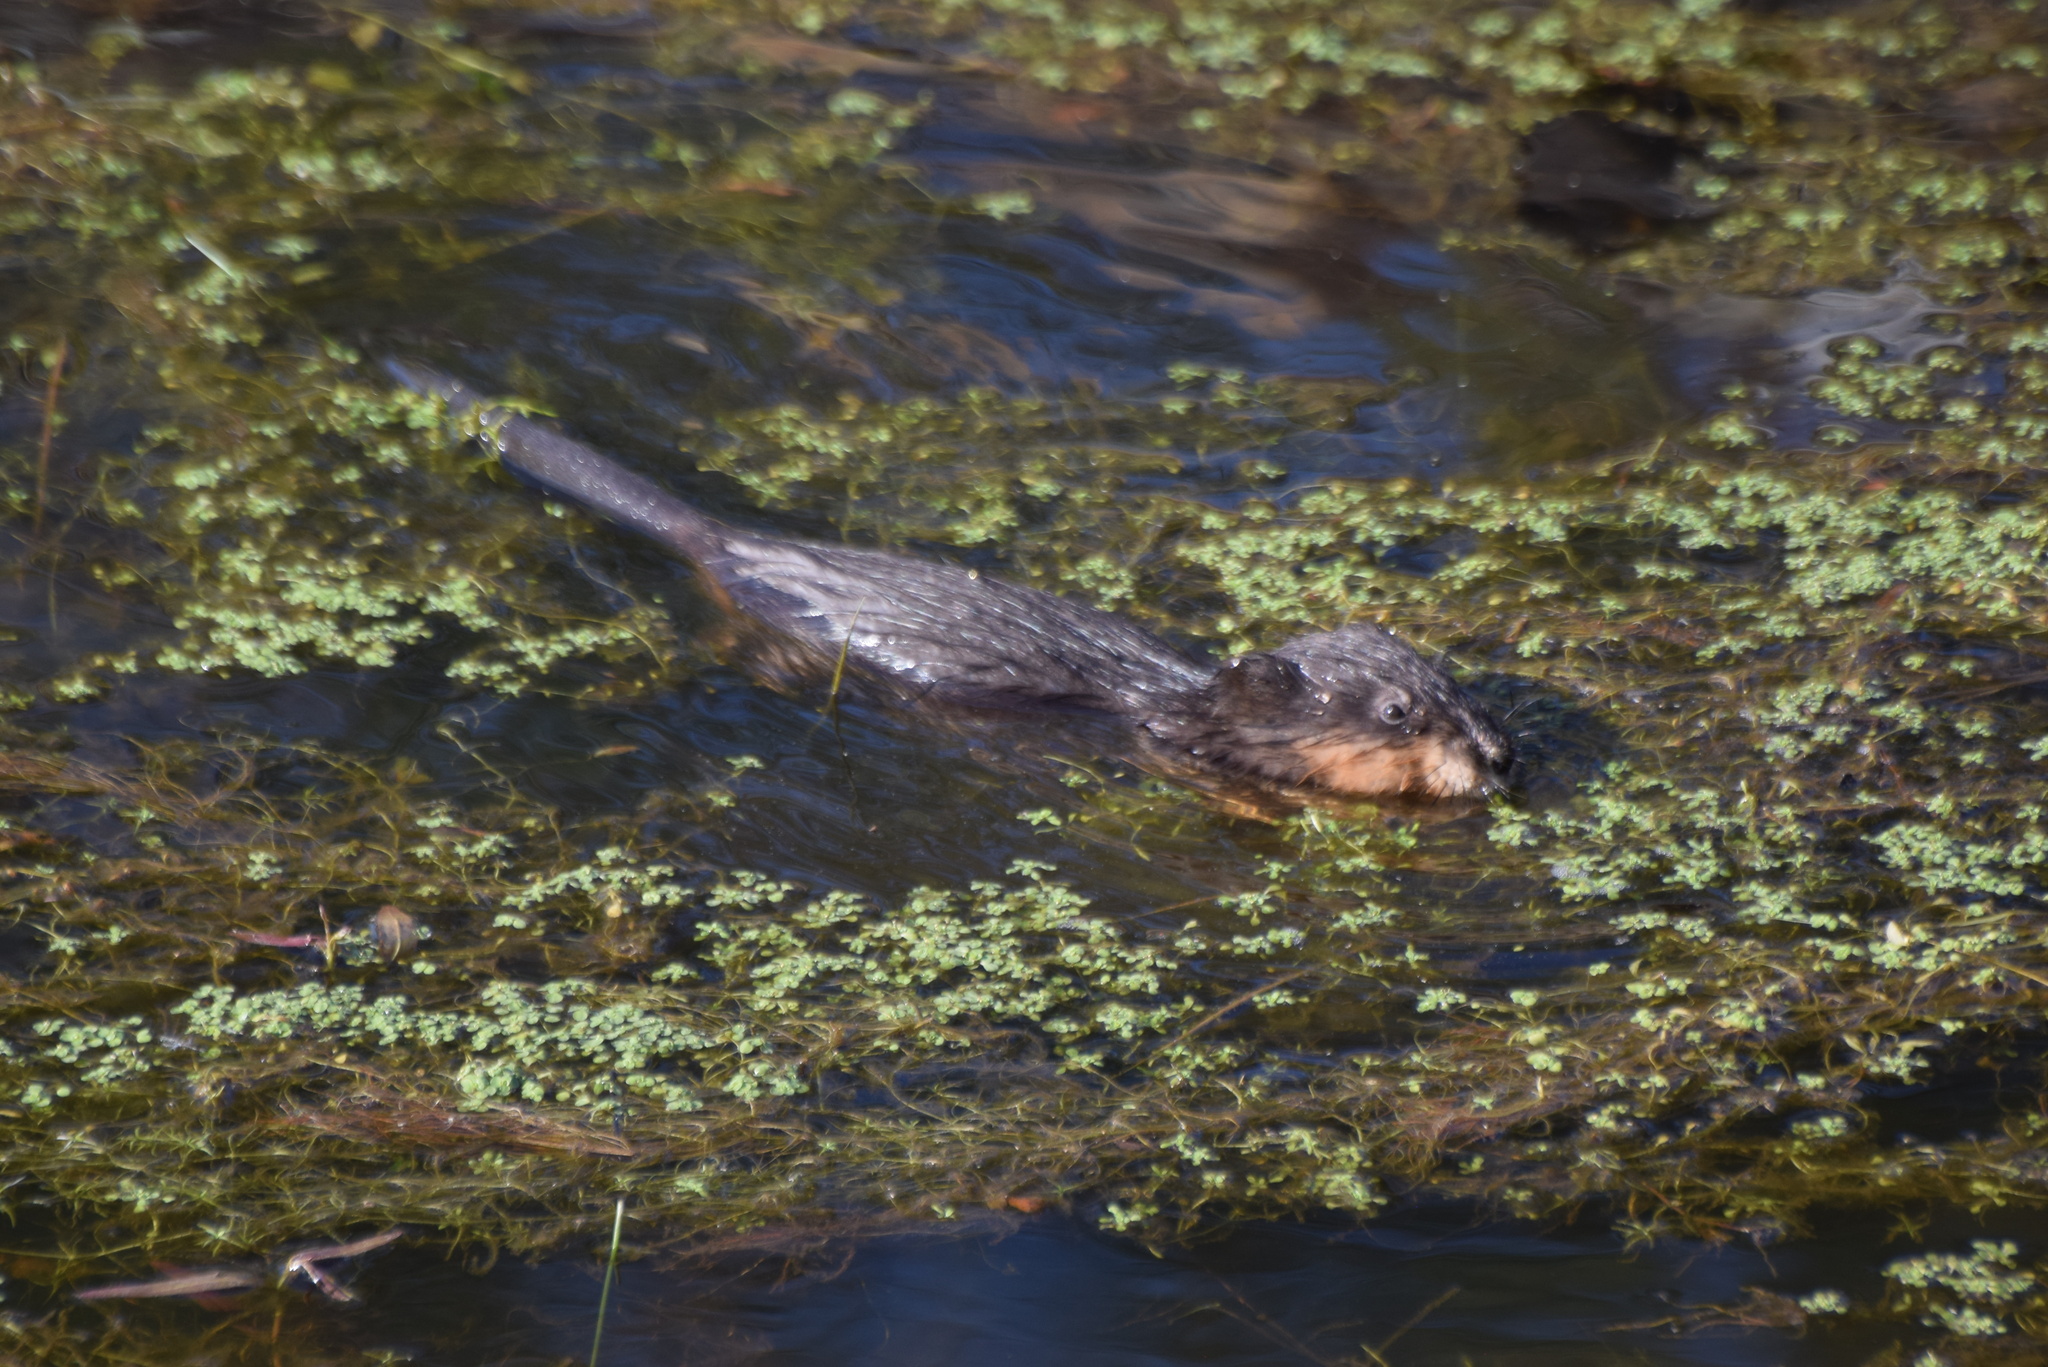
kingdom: Animalia
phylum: Chordata
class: Mammalia
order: Rodentia
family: Cricetidae
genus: Ondatra
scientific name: Ondatra zibethicus
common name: Muskrat
